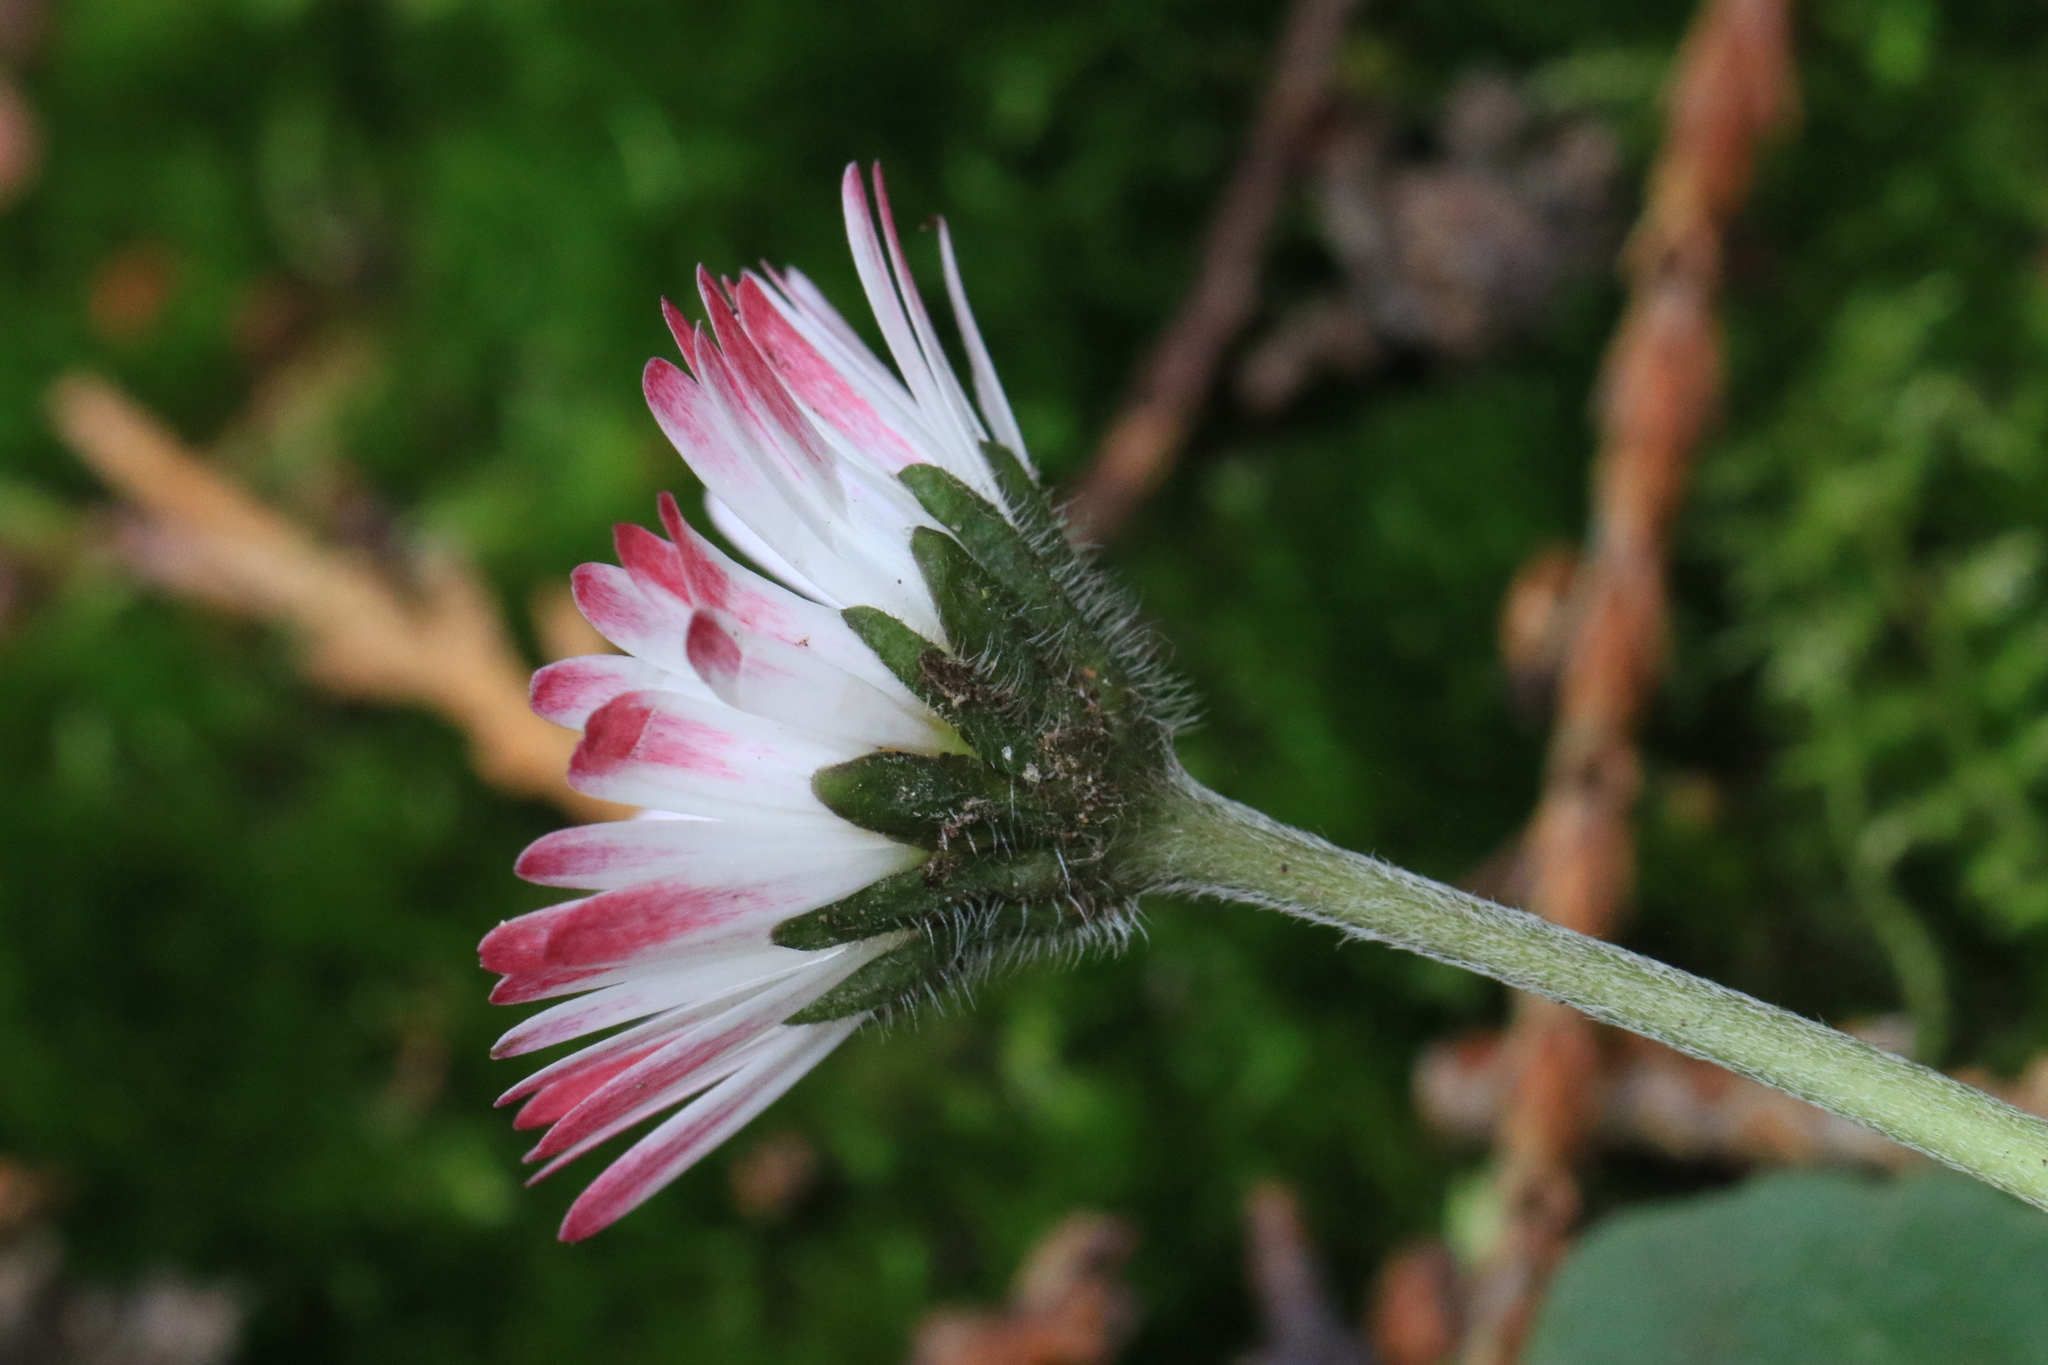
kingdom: Plantae
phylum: Tracheophyta
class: Magnoliopsida
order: Asterales
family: Asteraceae
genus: Bellis
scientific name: Bellis perennis
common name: Lawndaisy
